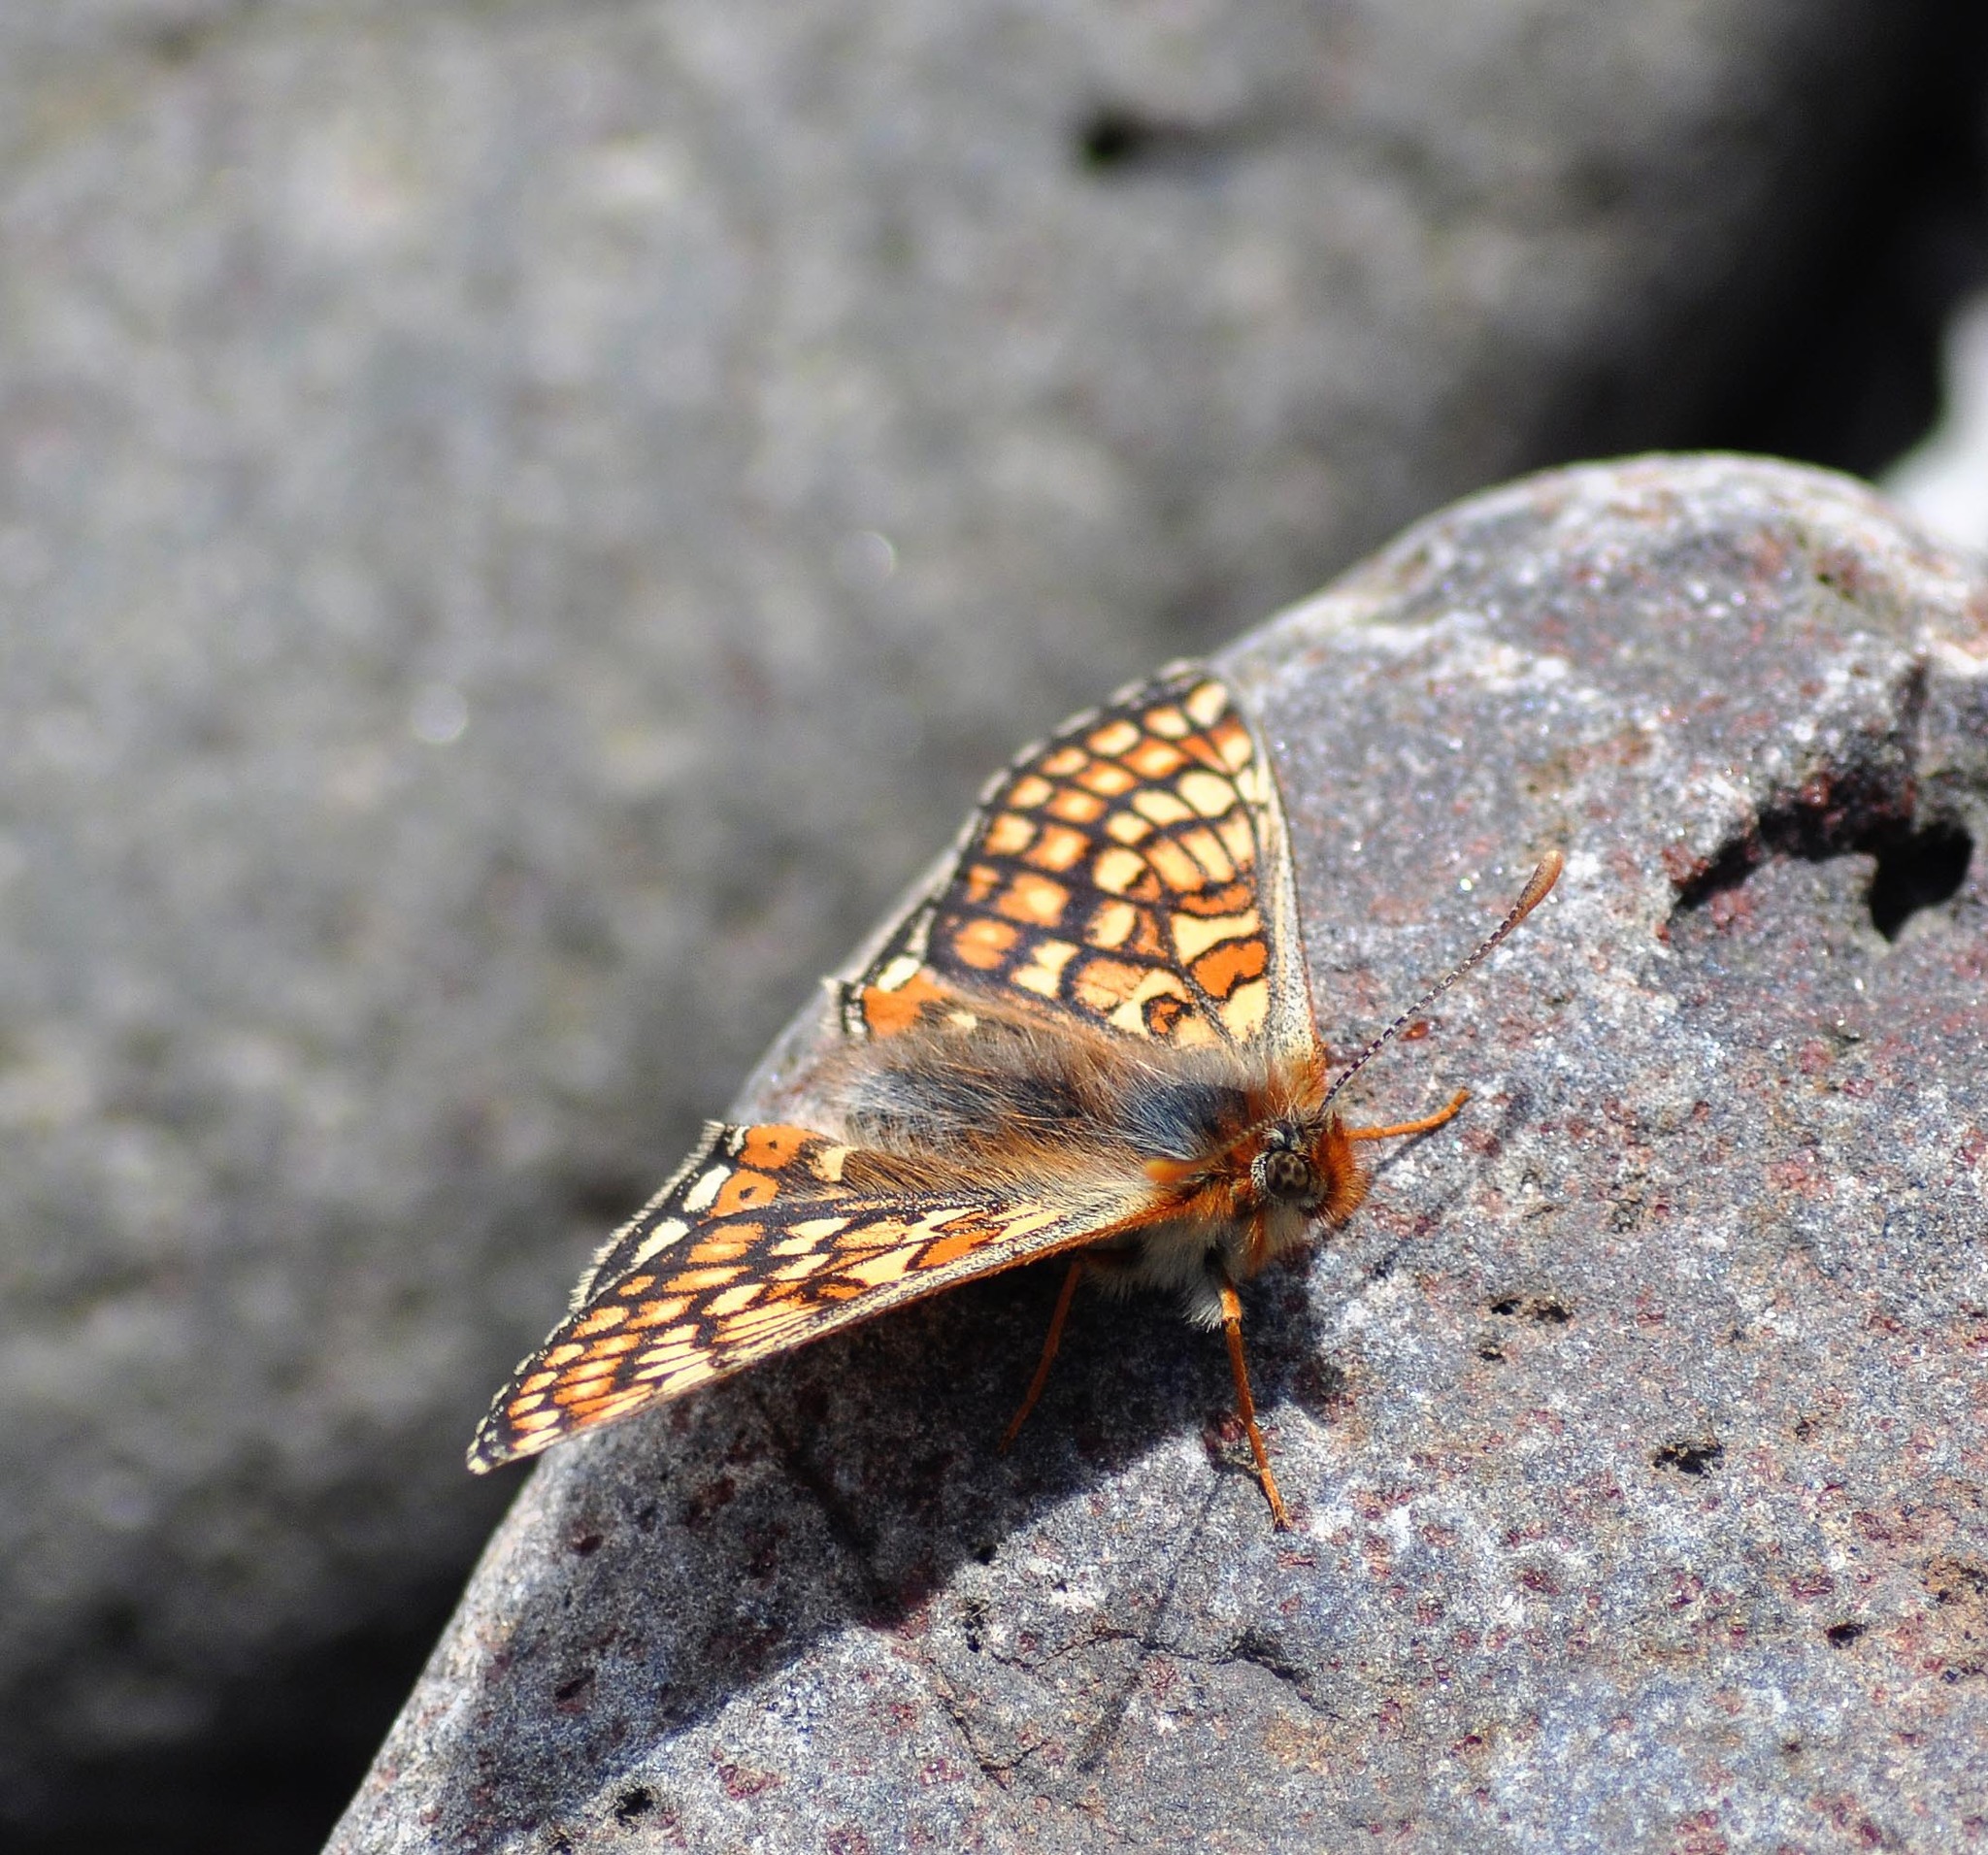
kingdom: Animalia
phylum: Arthropoda
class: Insecta
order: Lepidoptera
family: Nymphalidae
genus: Euphydryas
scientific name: Euphydryas aurinia
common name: Marsh fritillary
